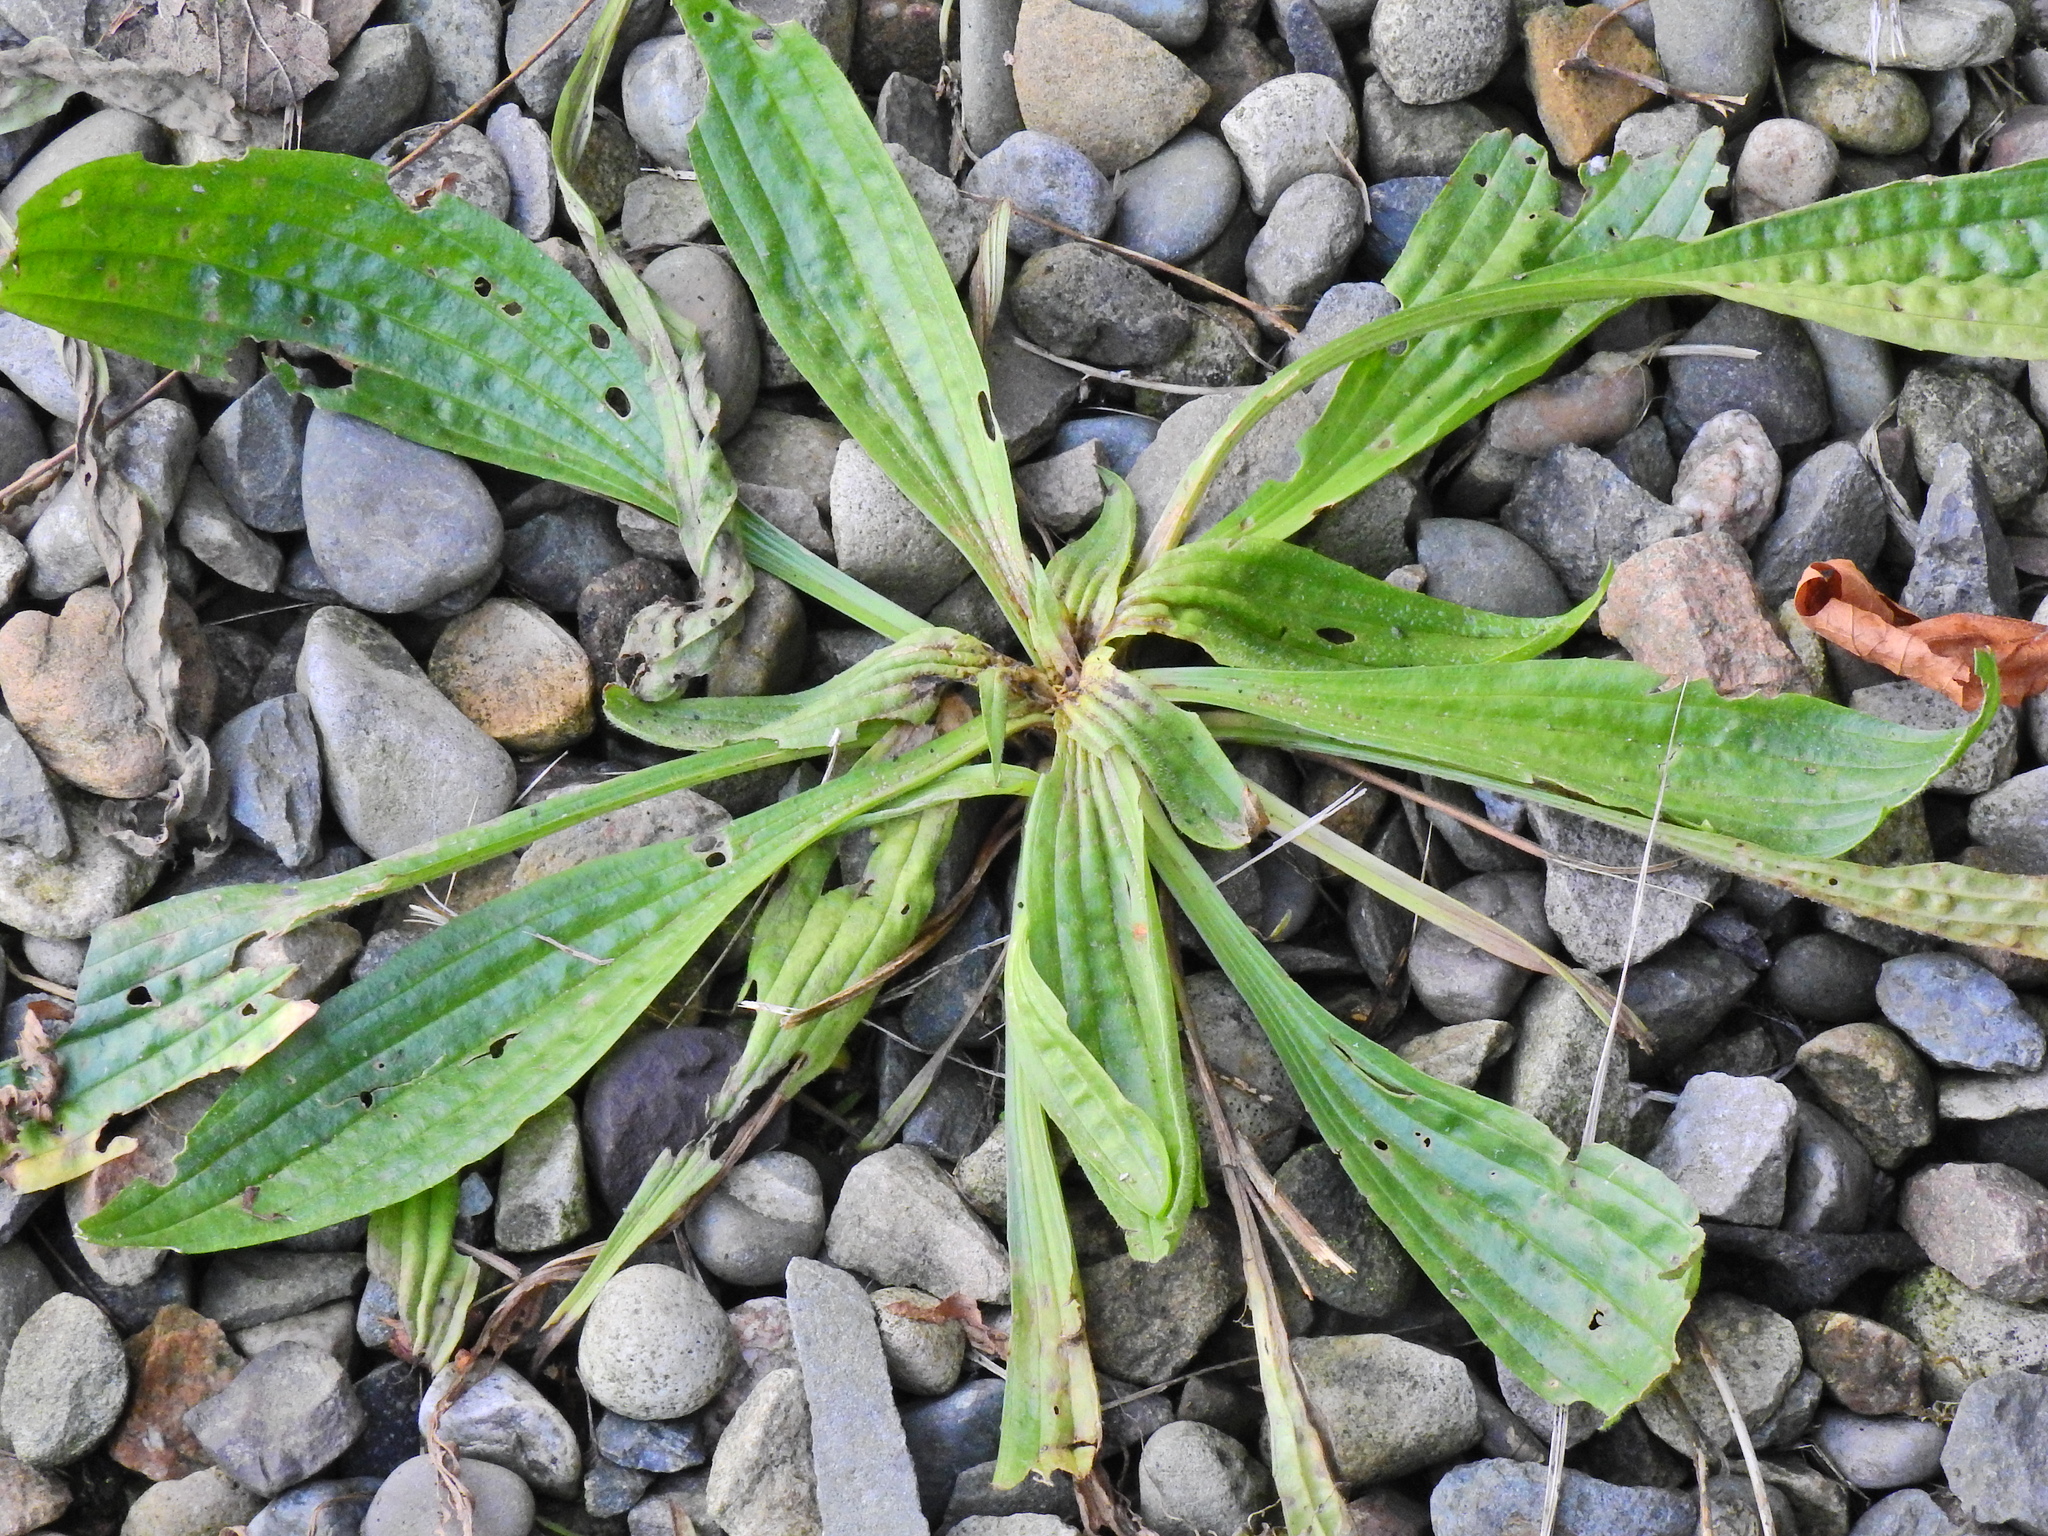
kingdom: Plantae
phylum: Tracheophyta
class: Magnoliopsida
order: Lamiales
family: Plantaginaceae
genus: Plantago
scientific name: Plantago lanceolata
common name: Ribwort plantain
